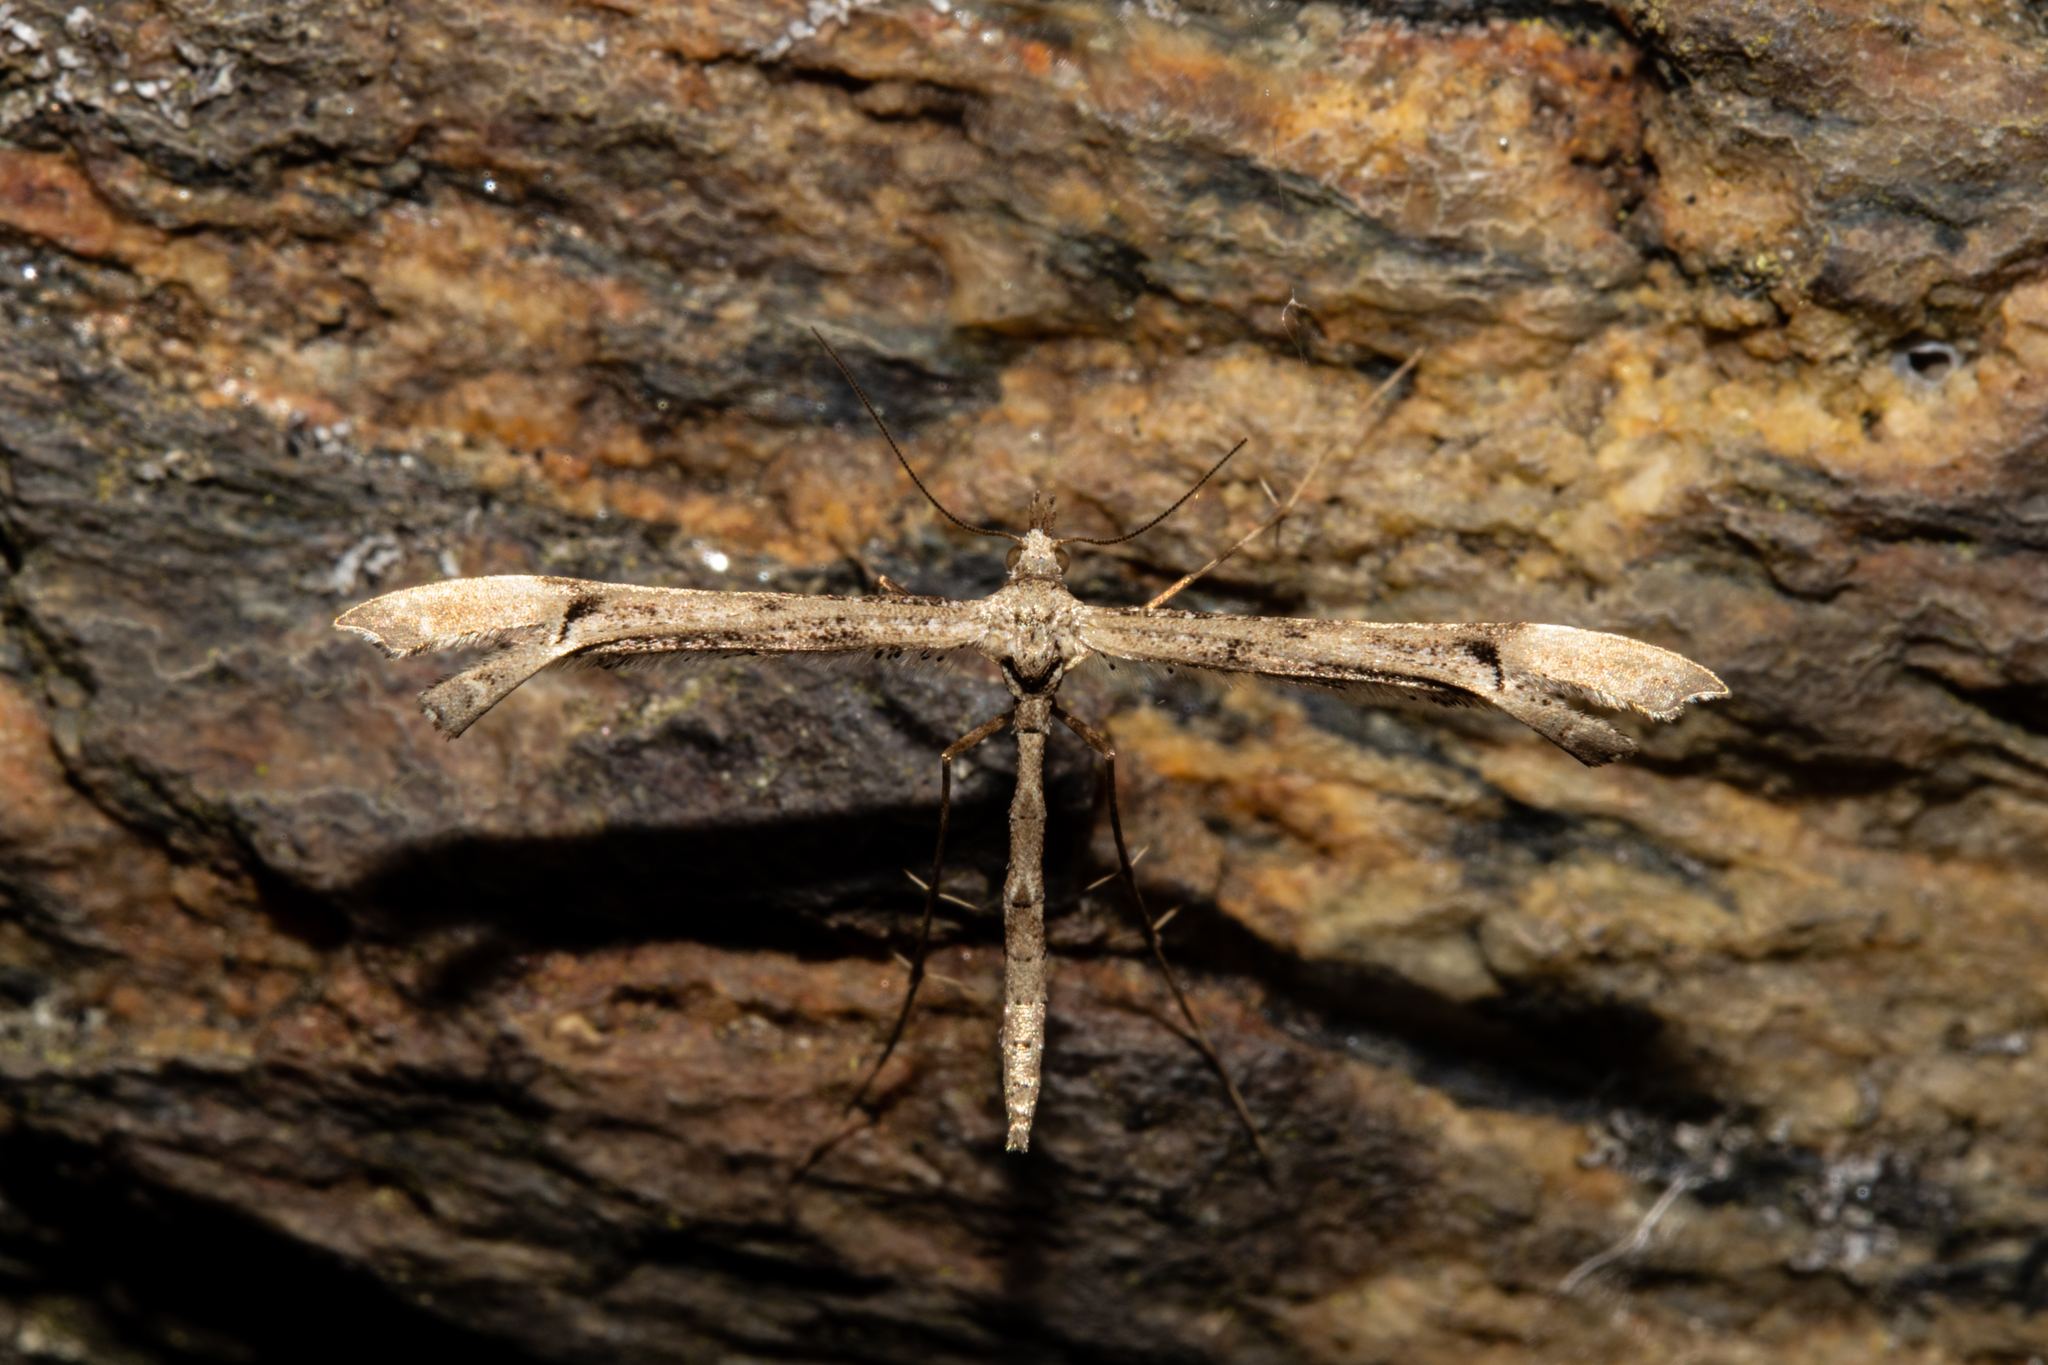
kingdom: Animalia
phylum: Arthropoda
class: Insecta
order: Lepidoptera
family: Pterophoridae
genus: Amblyptilia
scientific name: Amblyptilia repletalis
